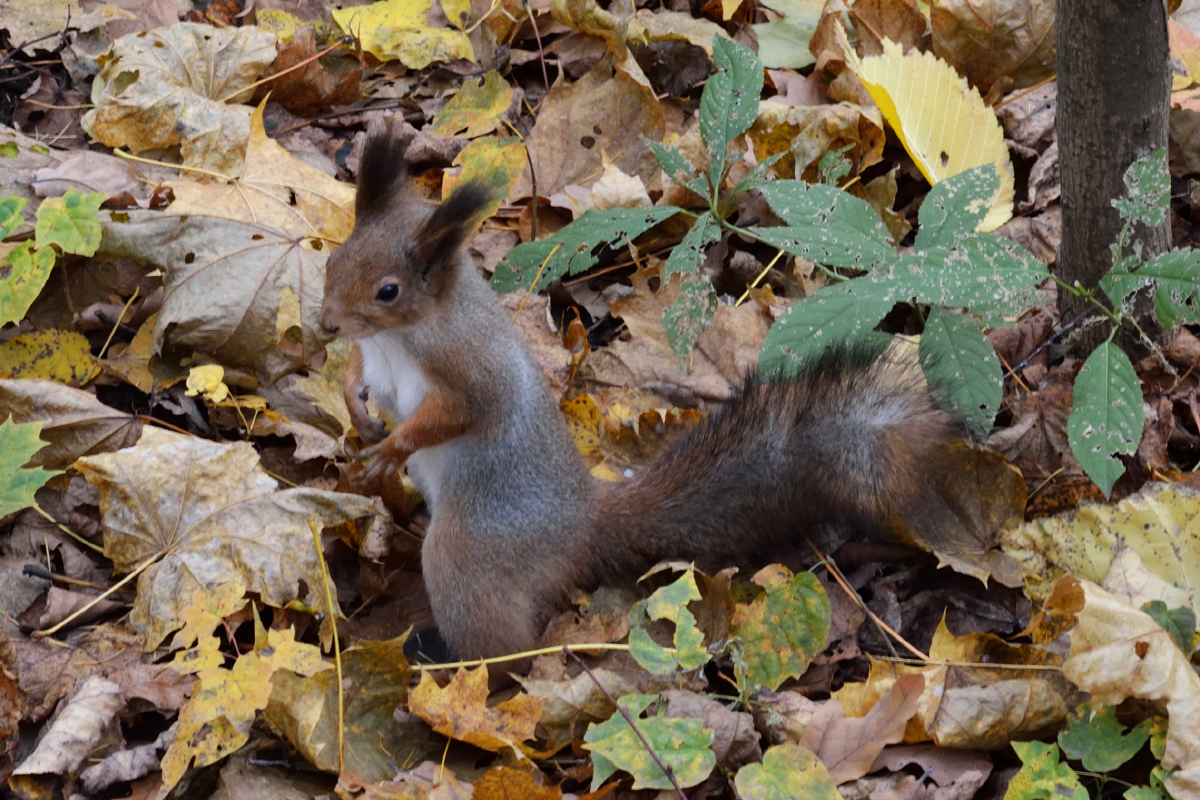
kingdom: Animalia
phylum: Chordata
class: Mammalia
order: Rodentia
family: Sciuridae
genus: Sciurus
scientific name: Sciurus vulgaris
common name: Eurasian red squirrel
